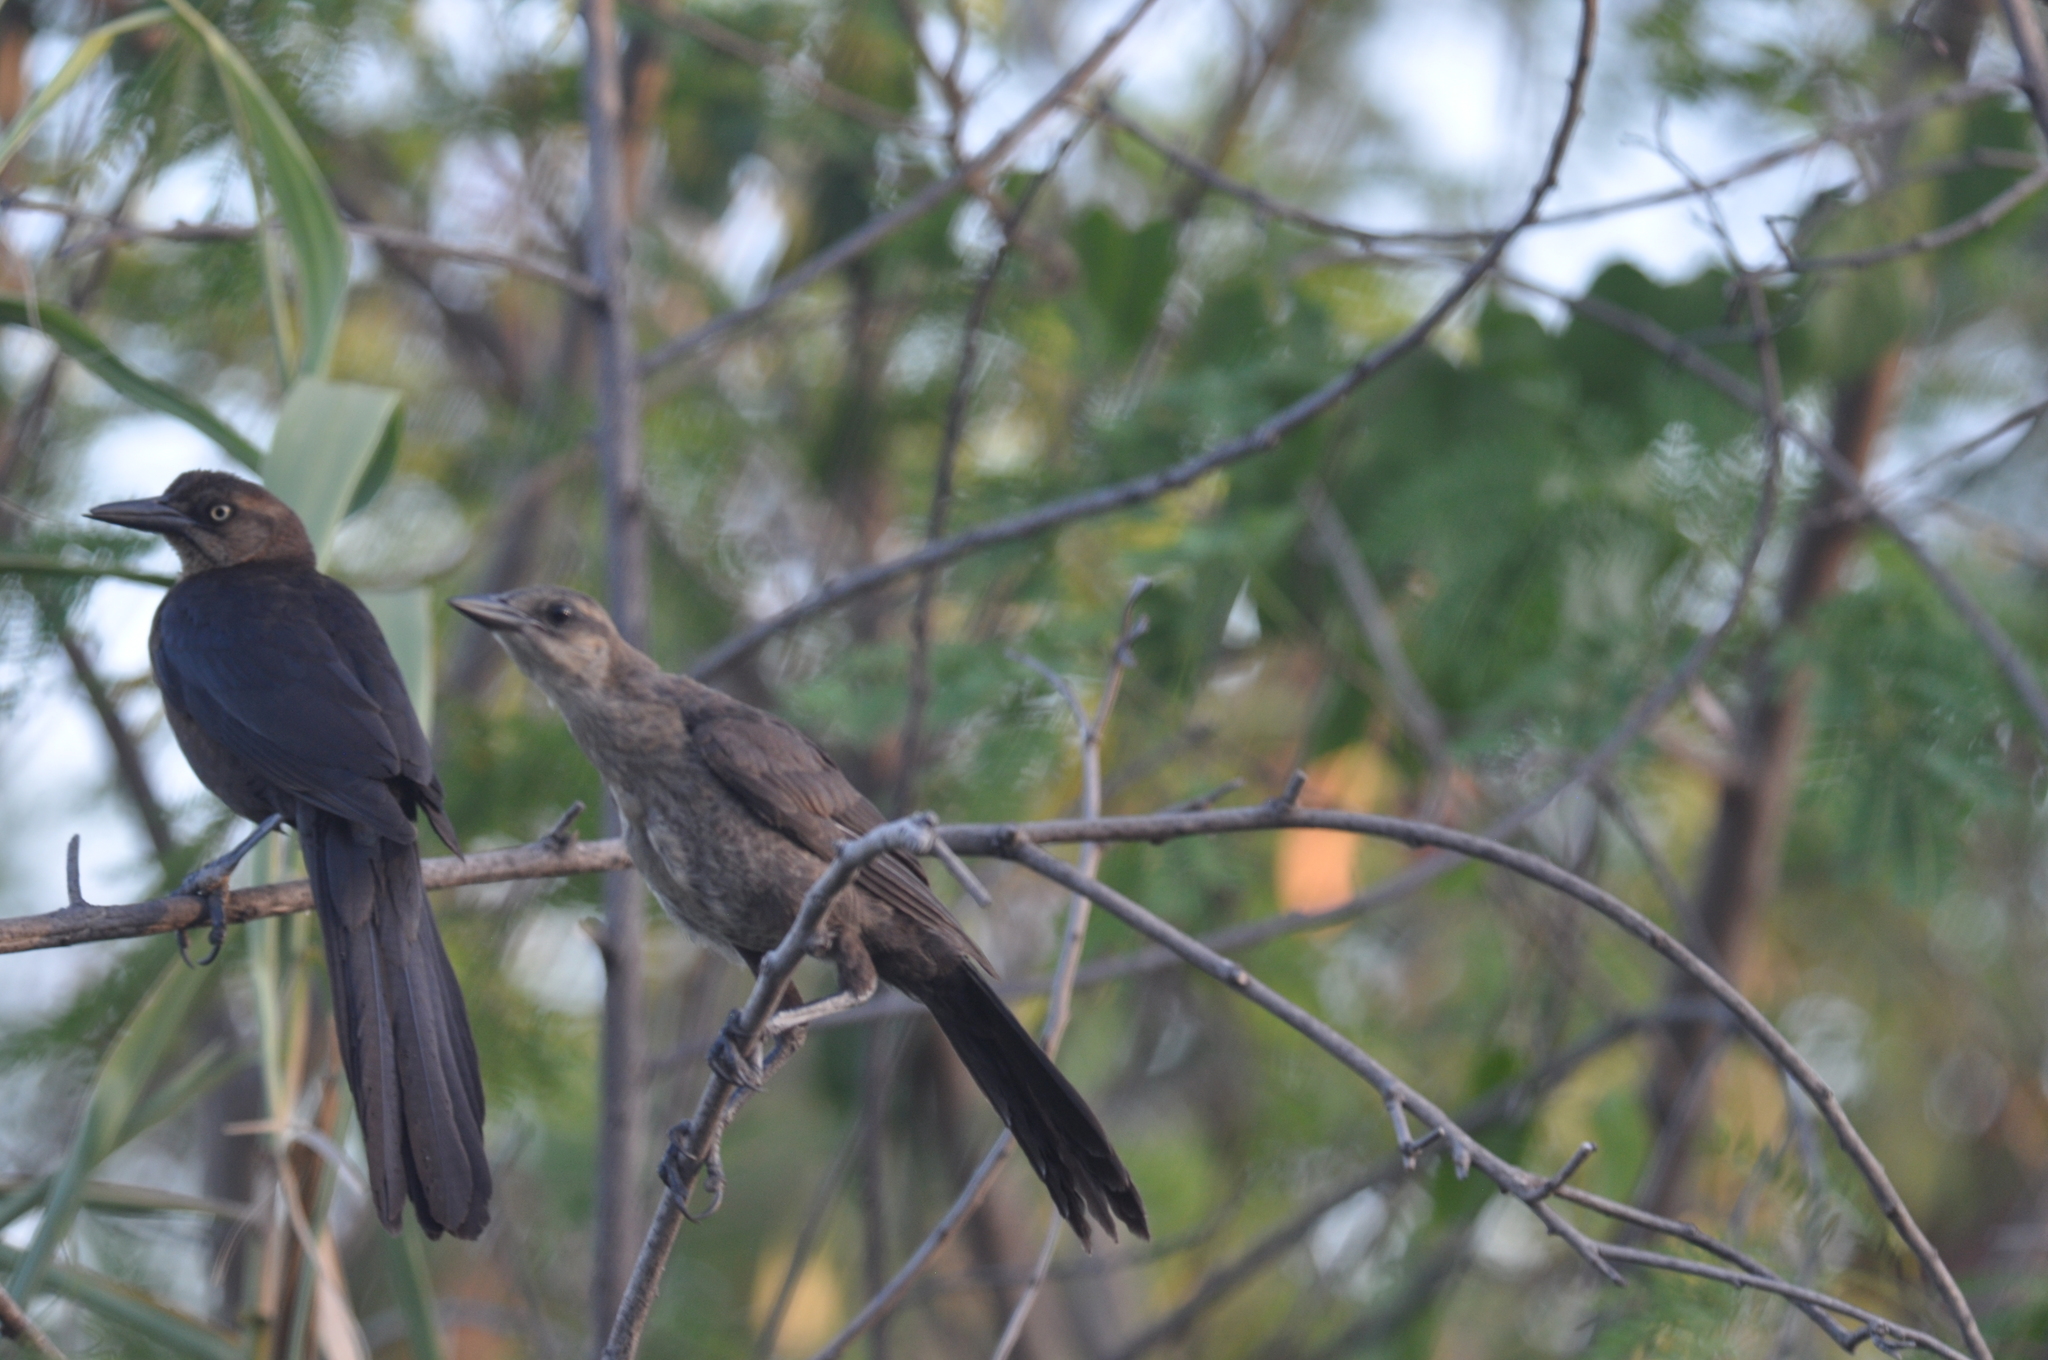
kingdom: Animalia
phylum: Chordata
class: Aves
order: Passeriformes
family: Icteridae
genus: Quiscalus
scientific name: Quiscalus mexicanus
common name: Great-tailed grackle
